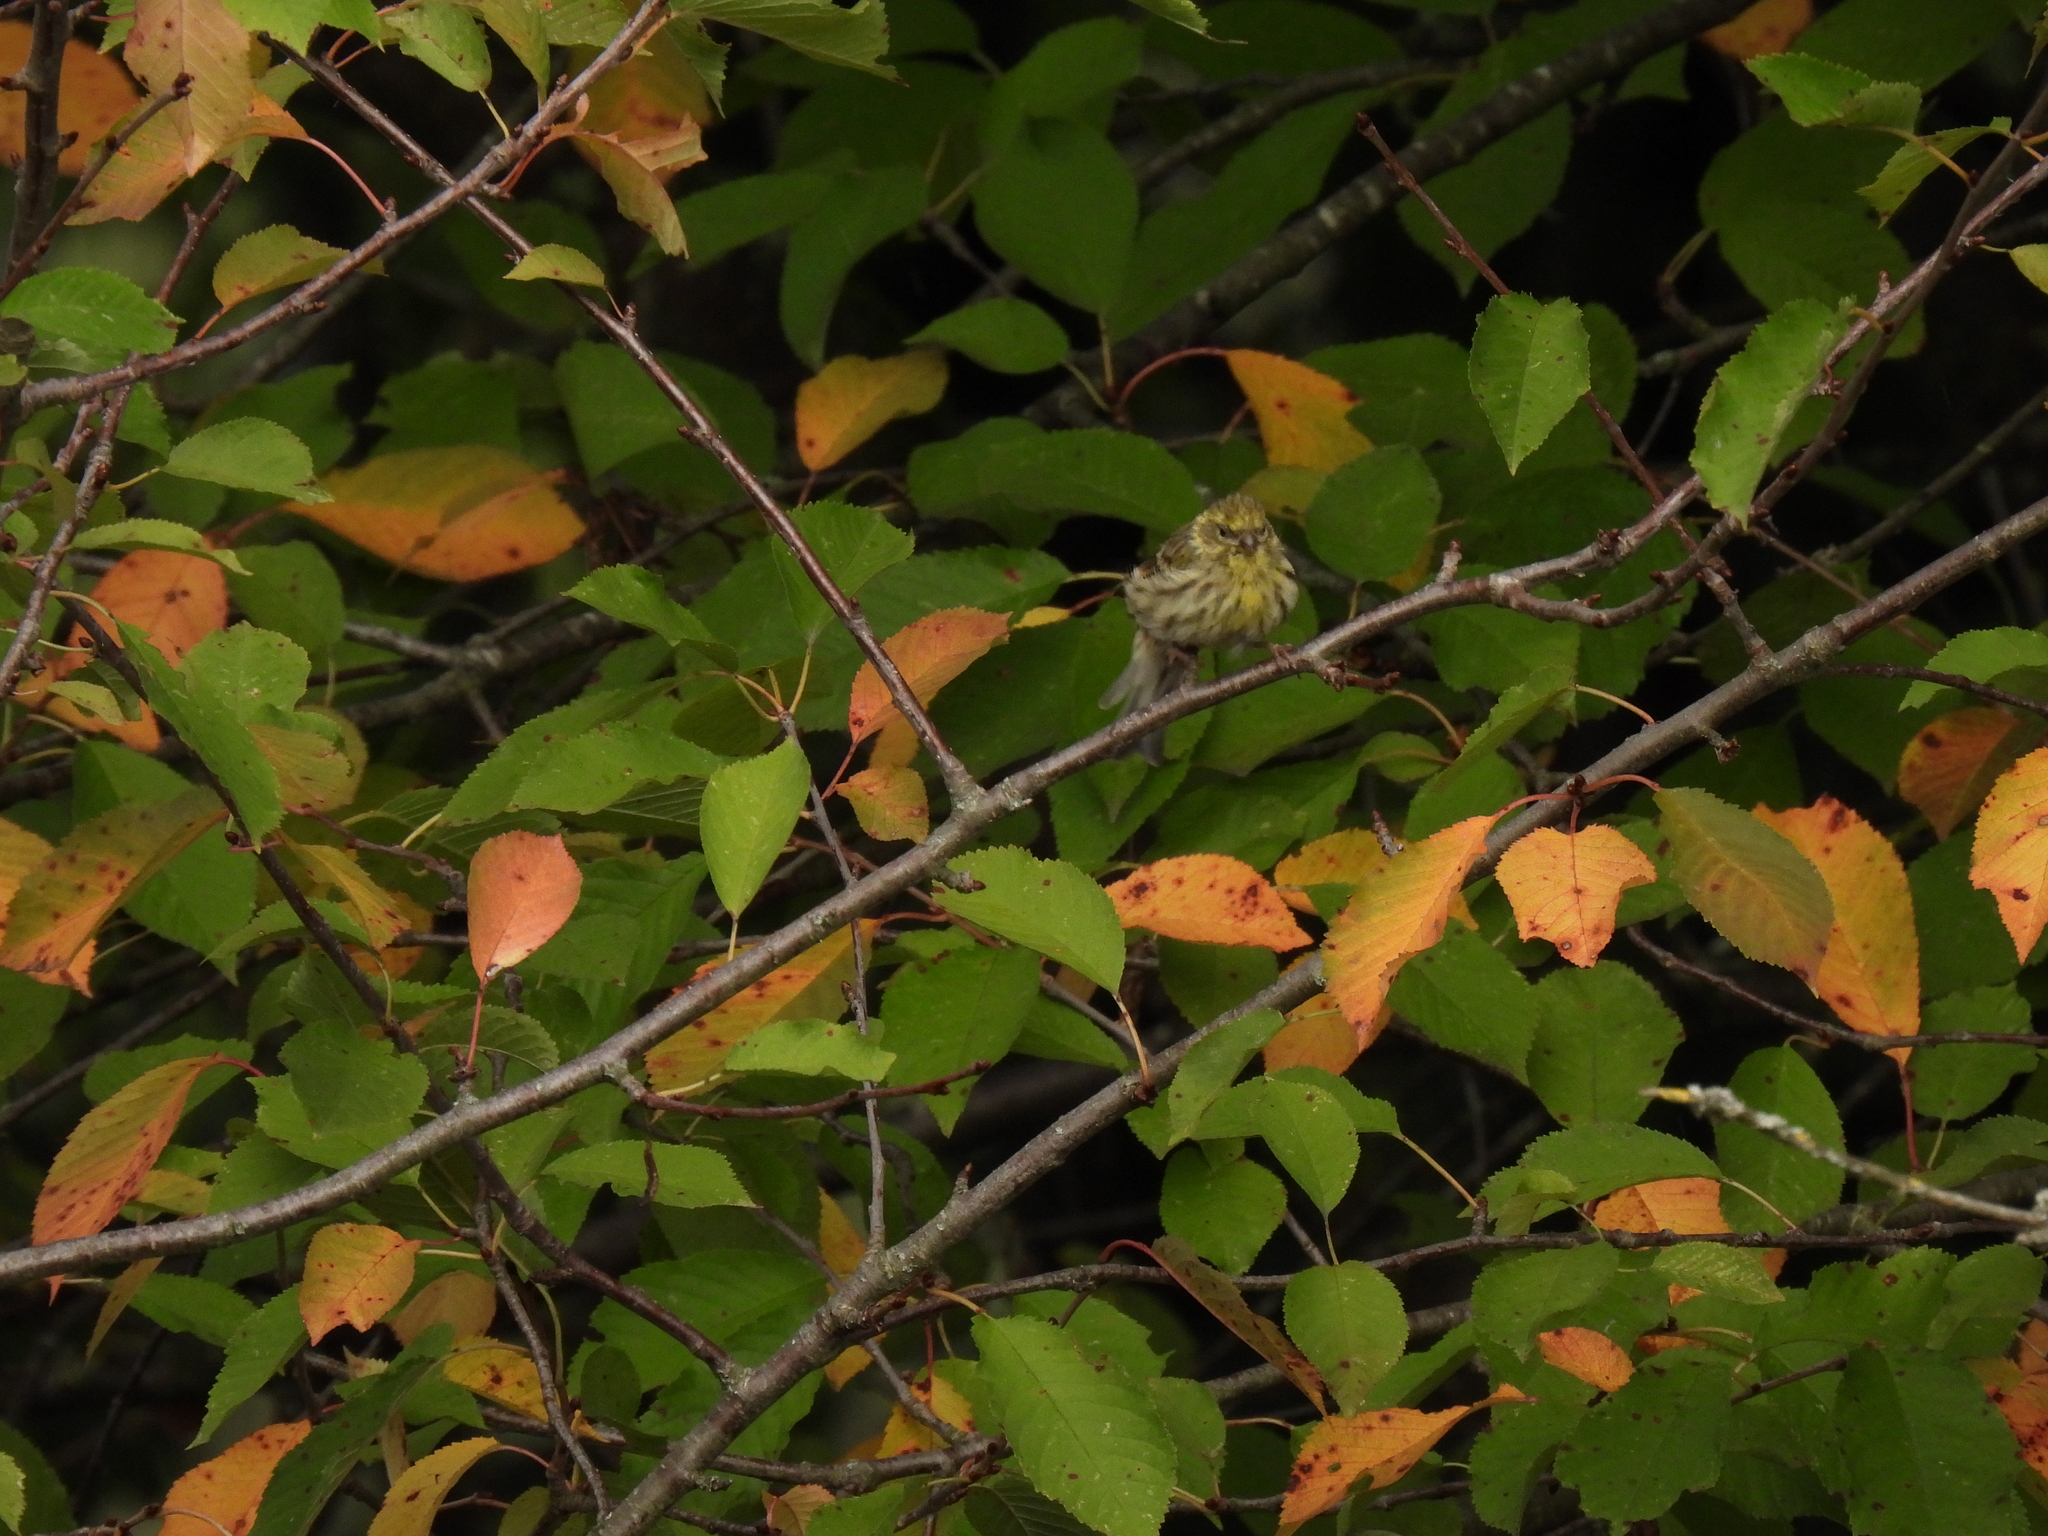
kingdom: Animalia
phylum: Chordata
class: Aves
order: Passeriformes
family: Fringillidae
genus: Serinus
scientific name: Serinus serinus
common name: European serin
